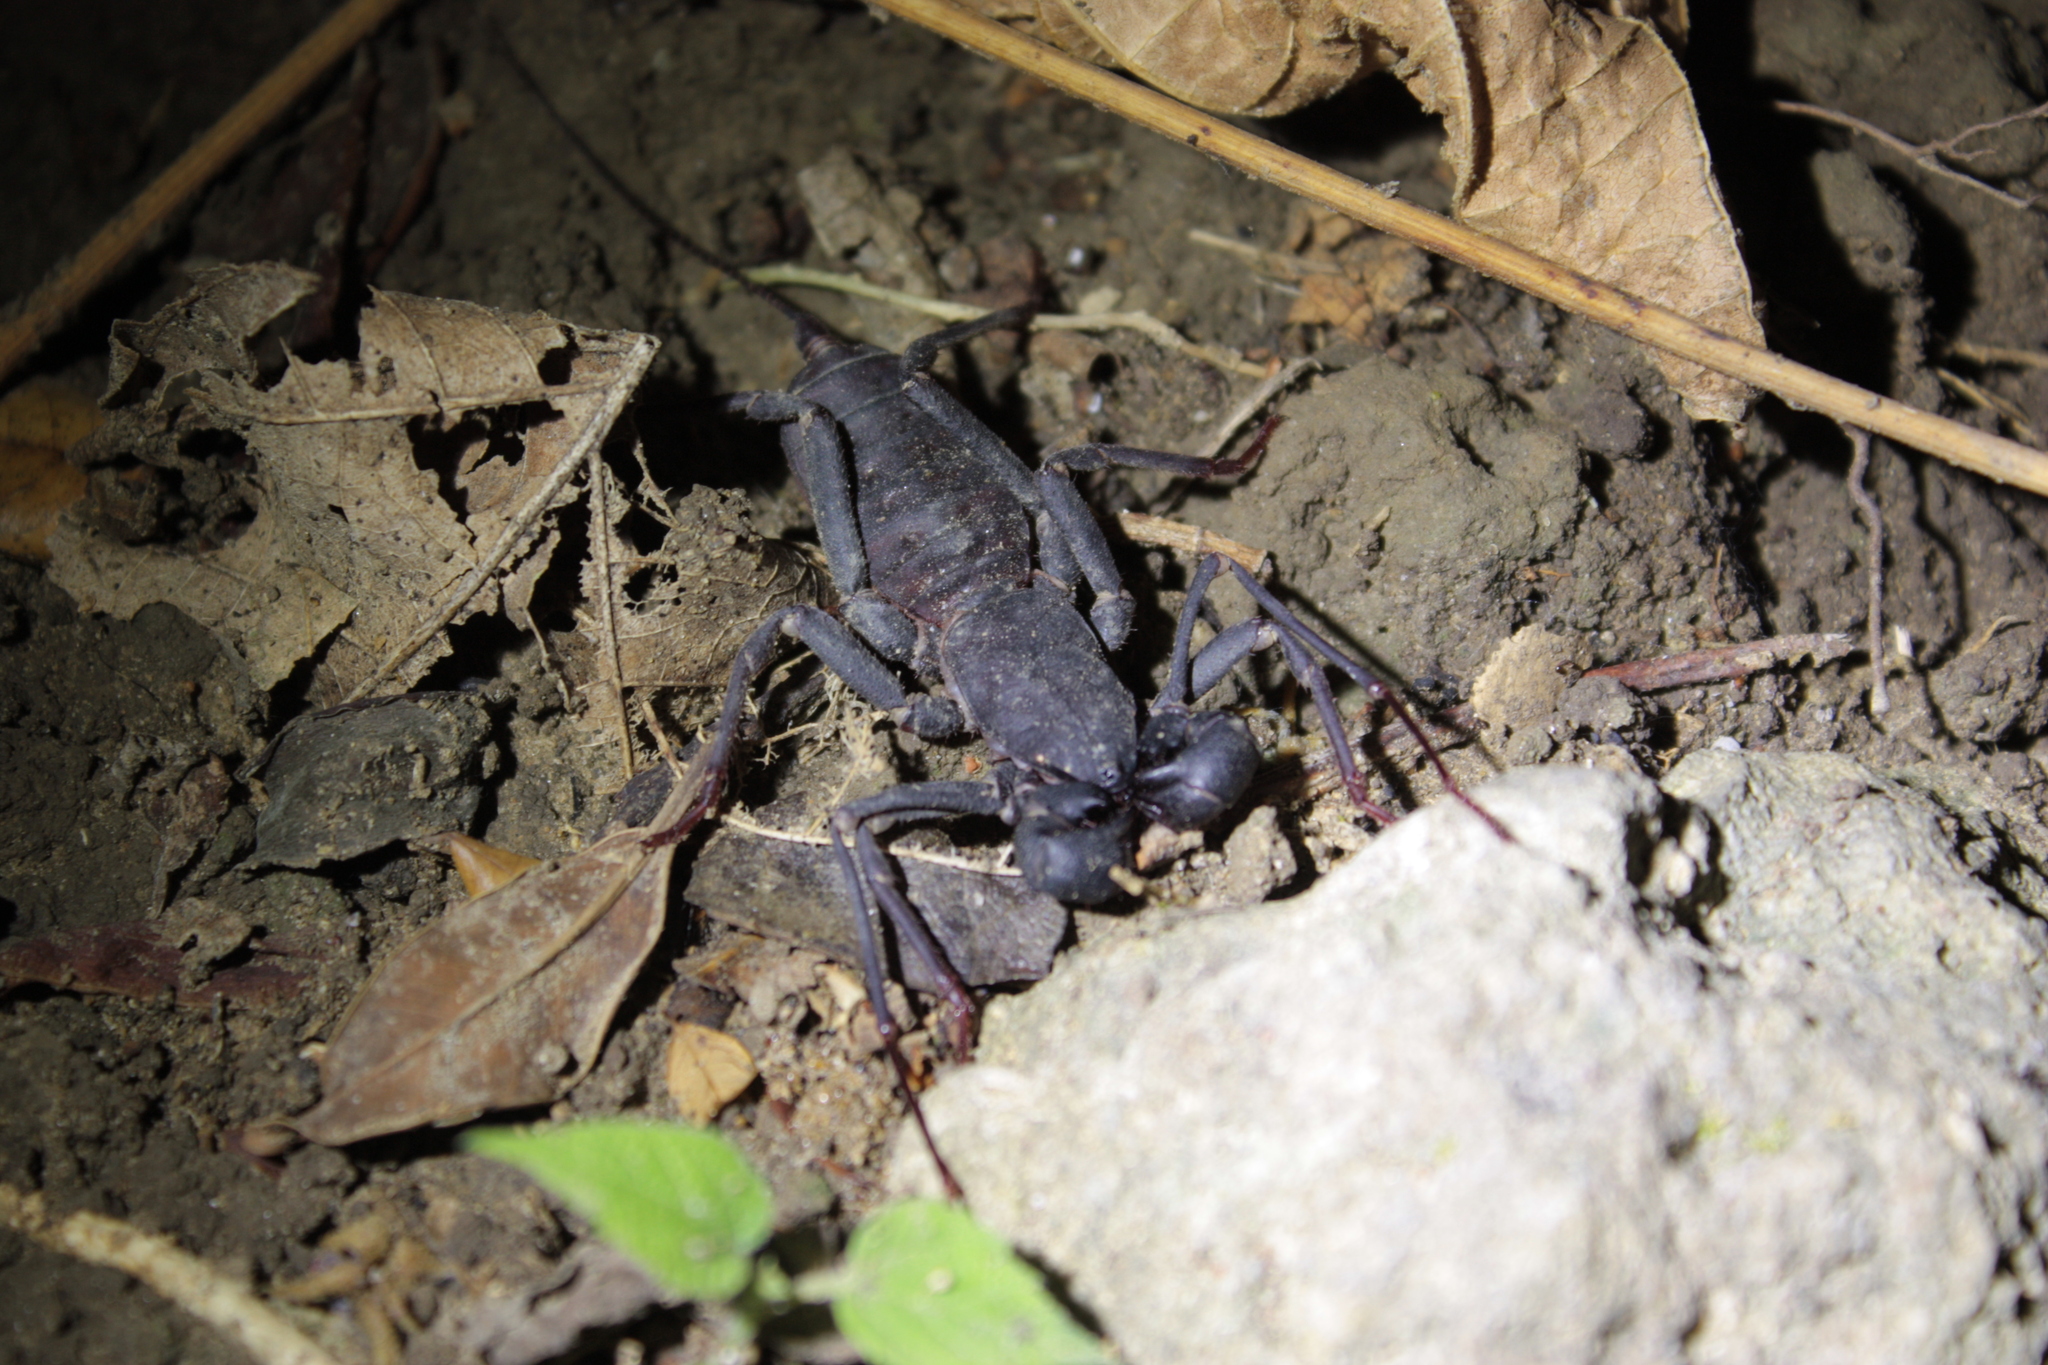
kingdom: Animalia
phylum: Arthropoda
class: Arachnida
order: Uropygi
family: Thelyphonidae
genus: Typopeltis
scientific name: Typopeltis crucifer
